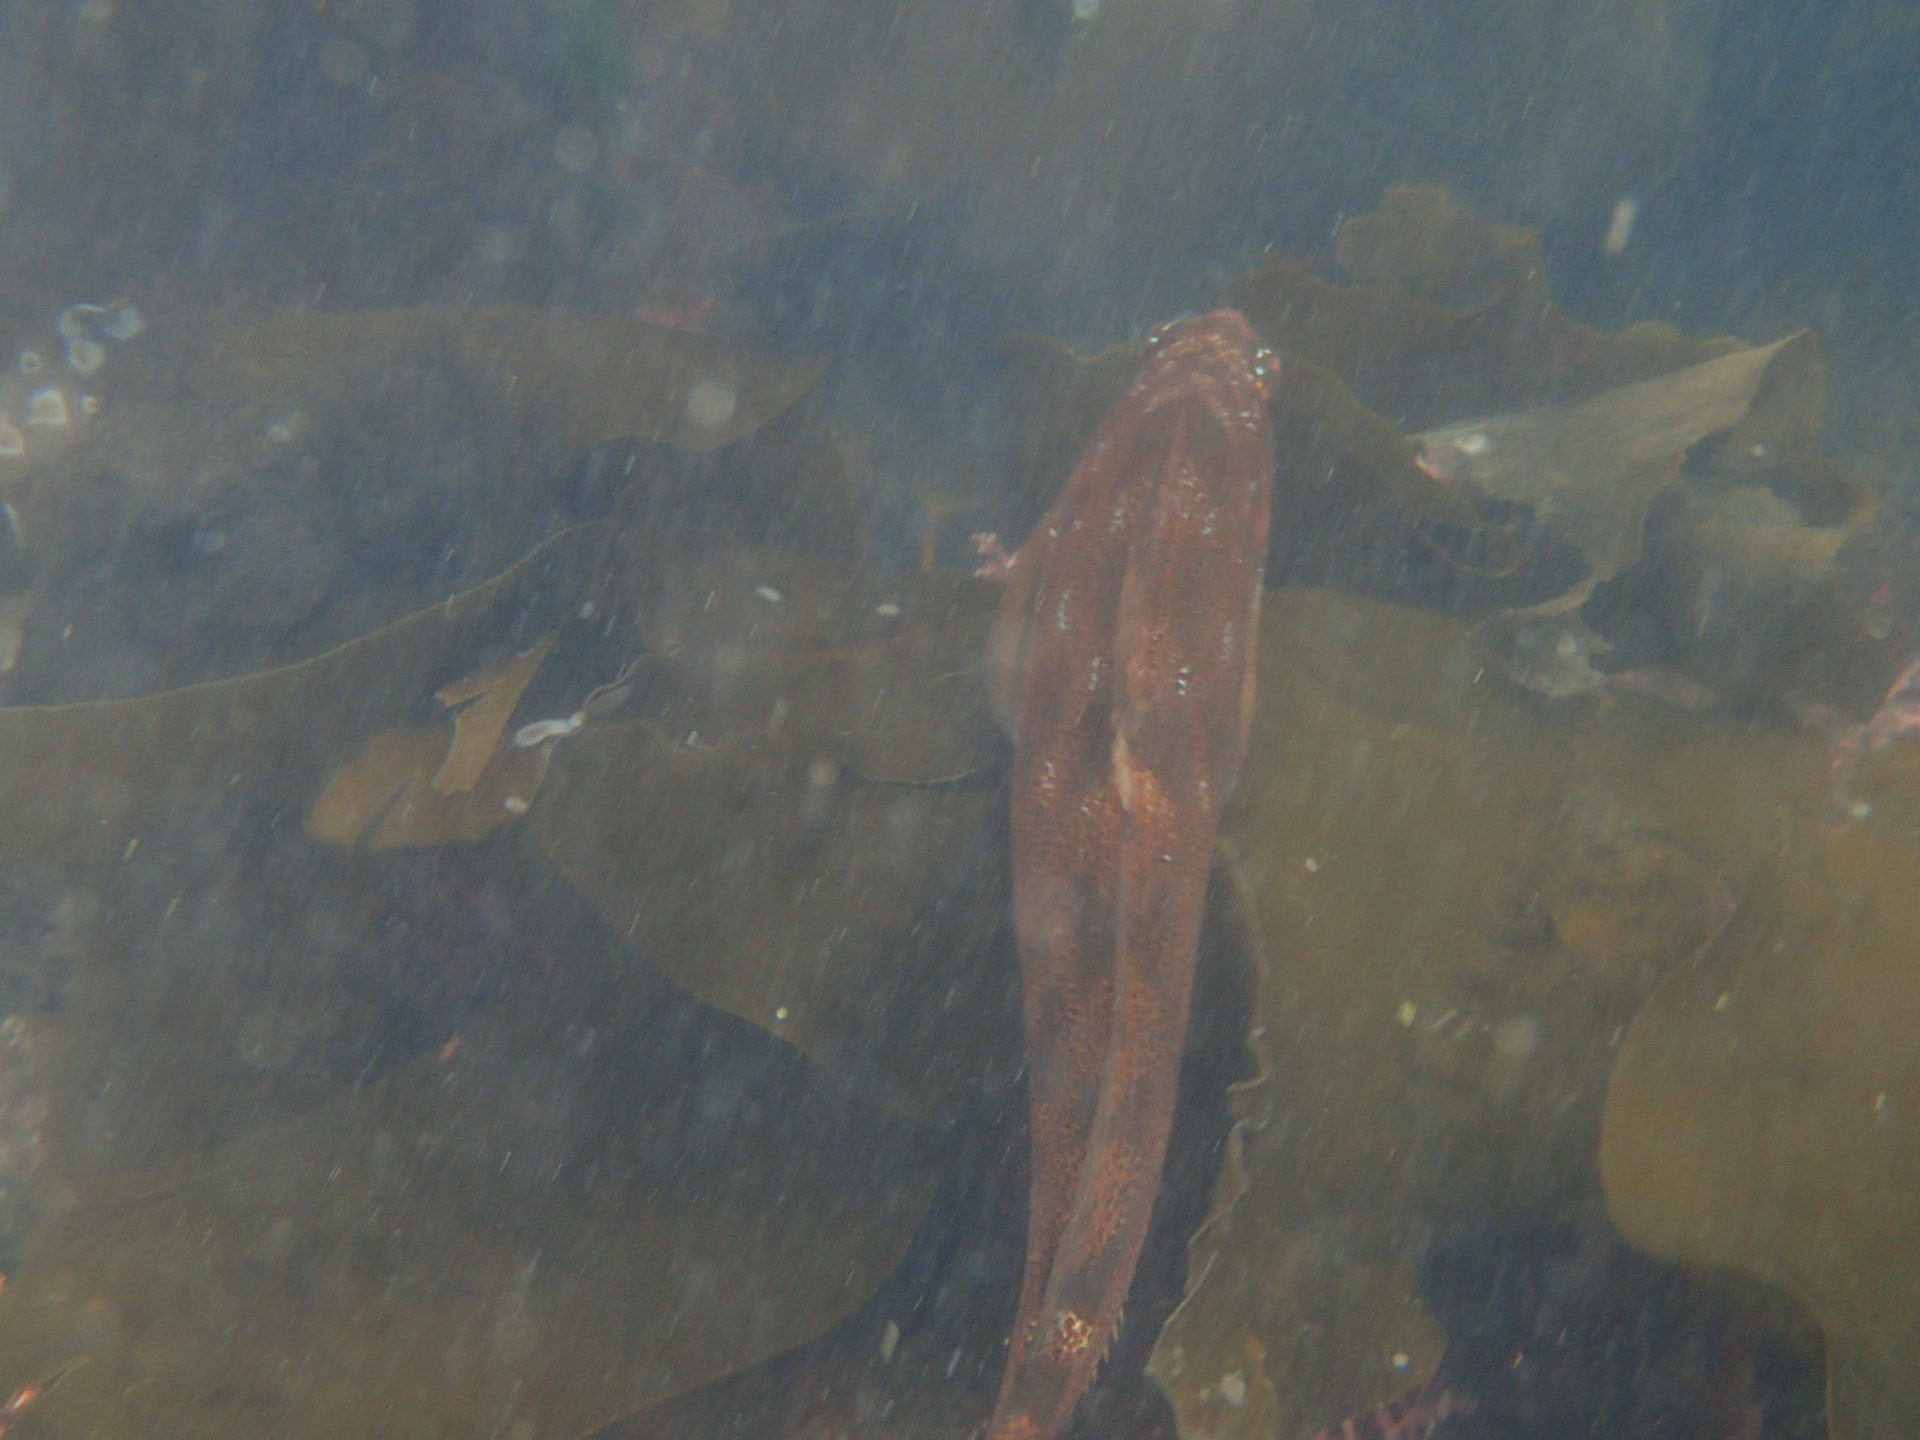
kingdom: Animalia
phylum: Chordata
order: Scorpaeniformes
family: Hexagrammidae
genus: Hexagrammos
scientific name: Hexagrammos decagrammus
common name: Kelp greenling
